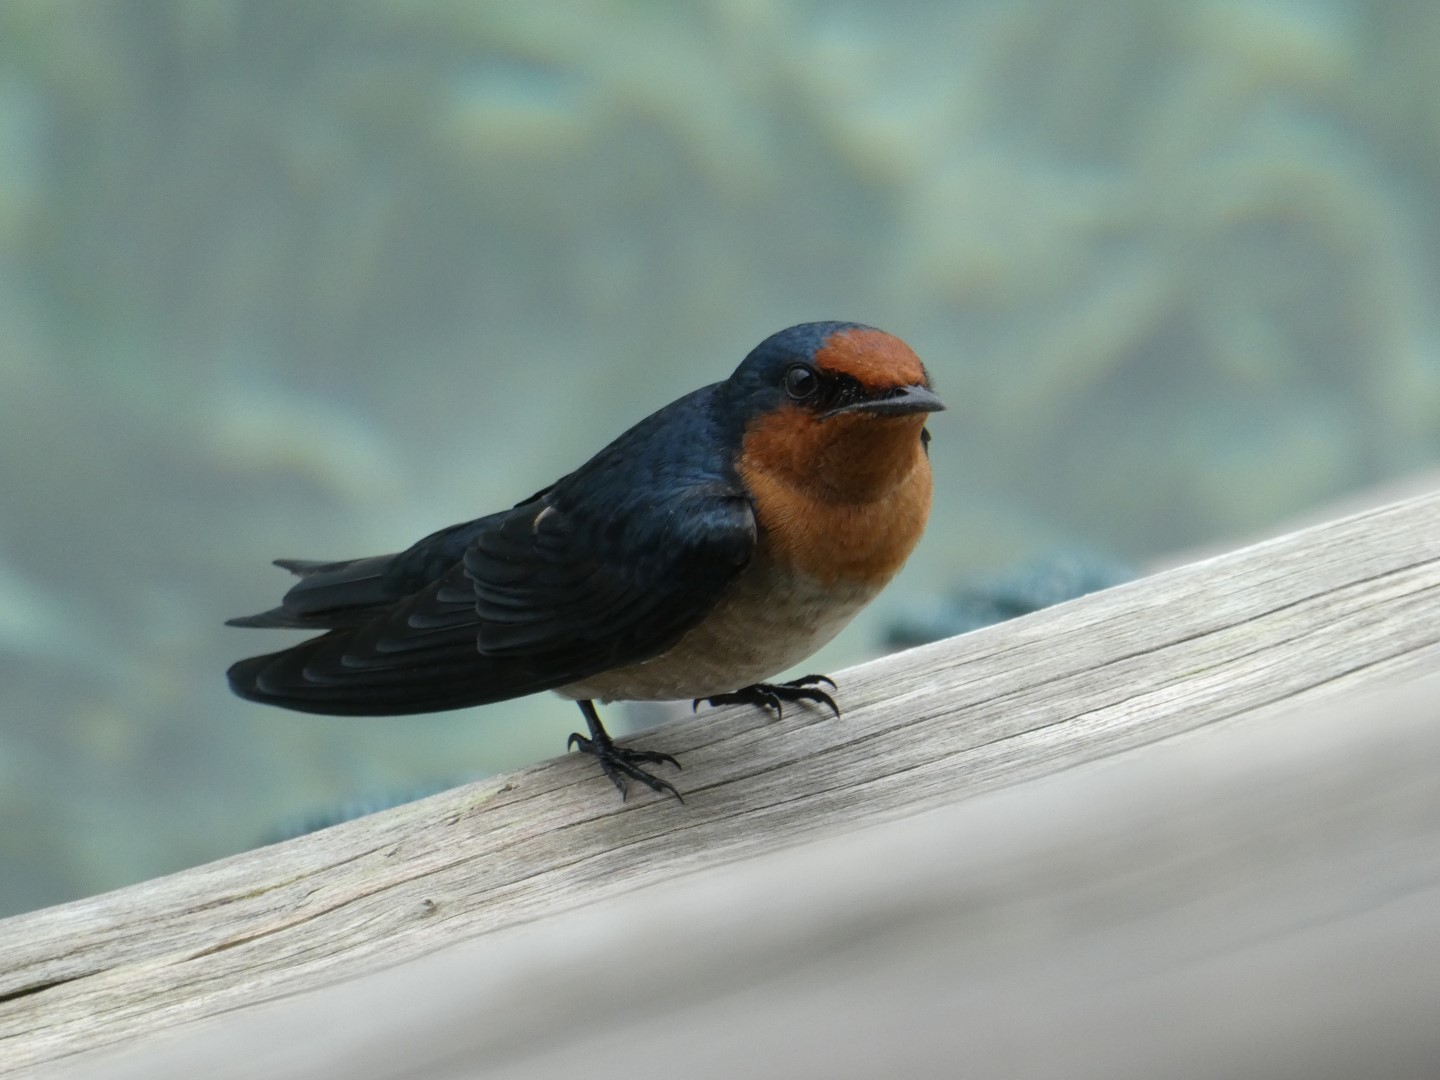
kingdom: Animalia
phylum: Chordata
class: Aves
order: Passeriformes
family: Hirundinidae
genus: Hirundo
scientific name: Hirundo tahitica
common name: Pacific swallow
